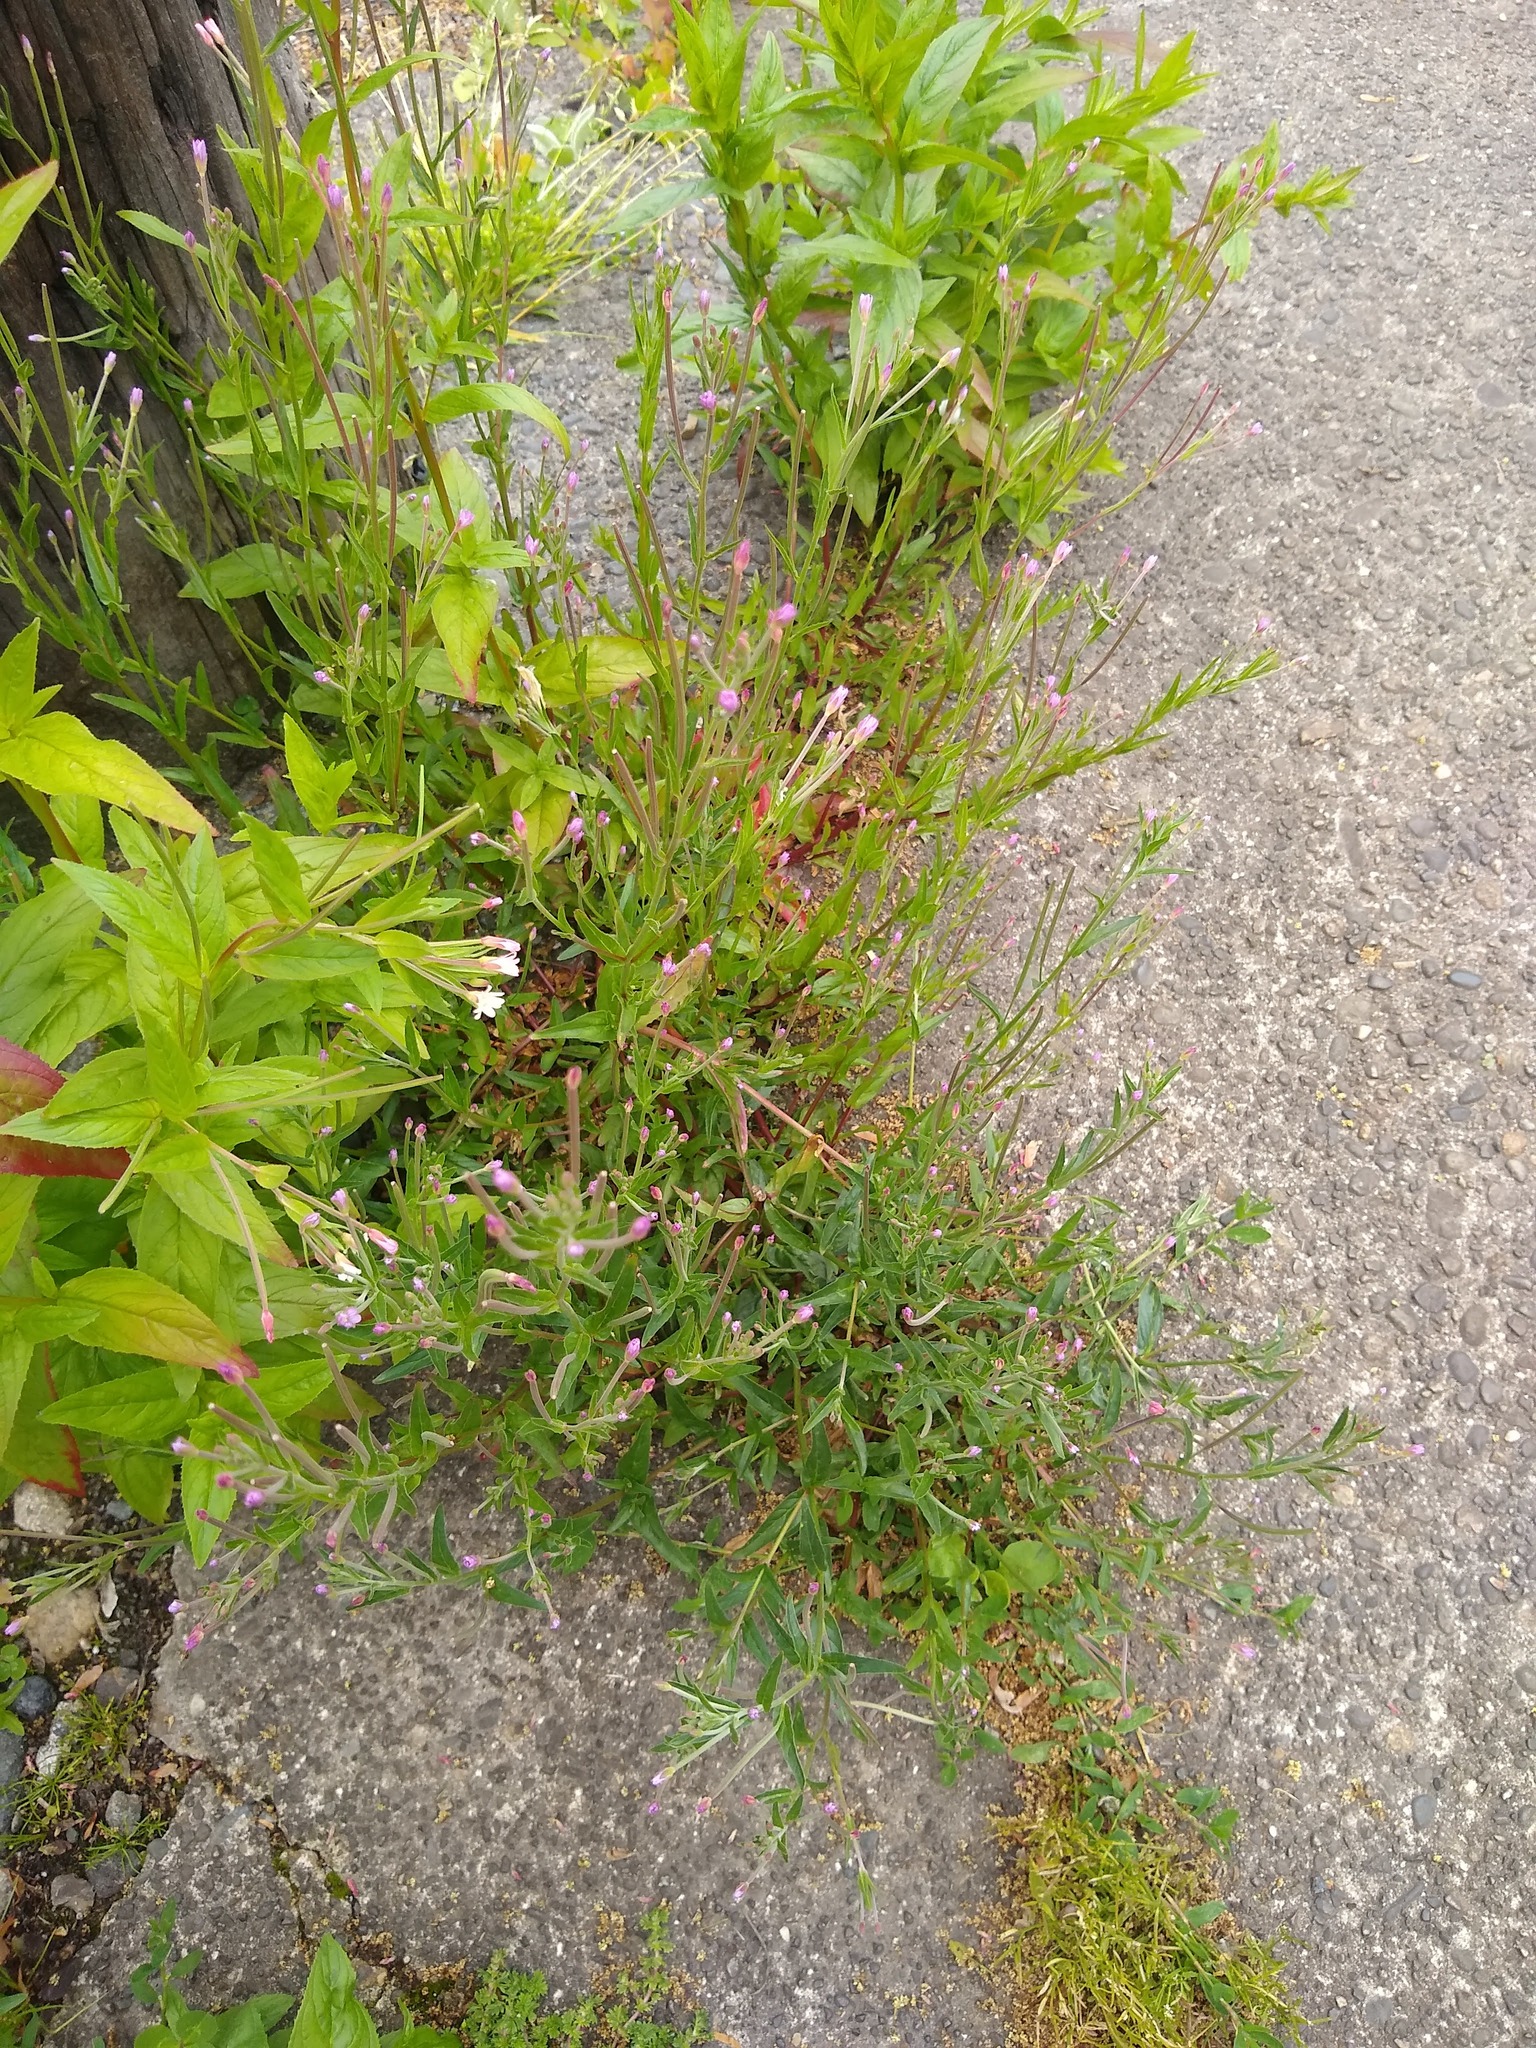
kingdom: Plantae
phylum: Tracheophyta
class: Magnoliopsida
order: Myrtales
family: Onagraceae
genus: Epilobium
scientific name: Epilobium ciliatum
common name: American willowherb
